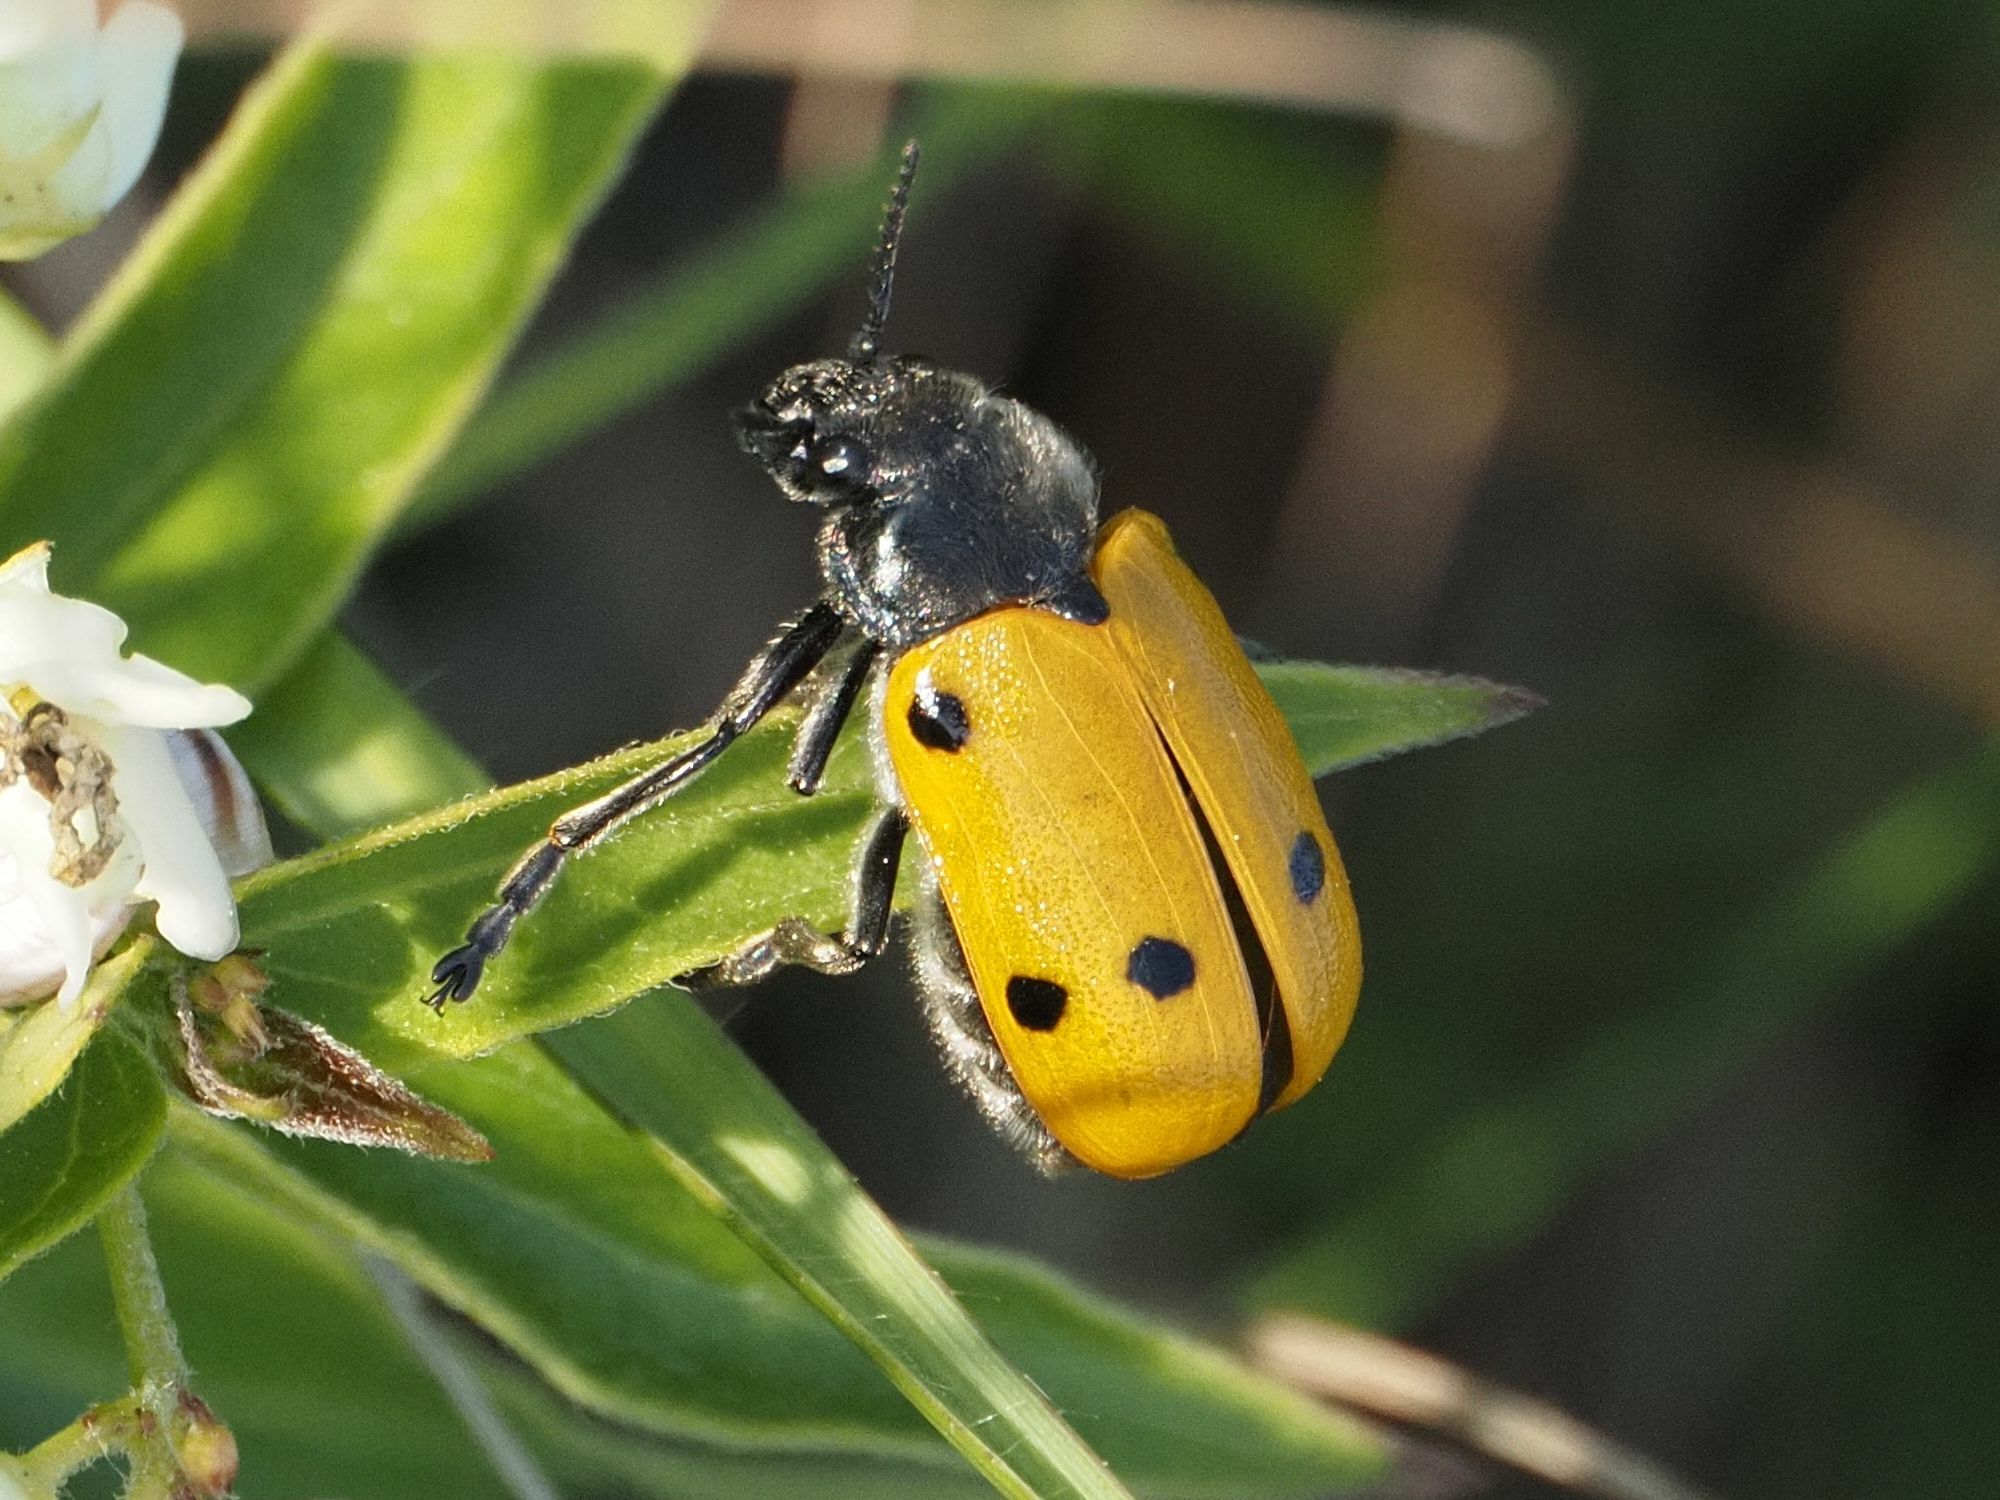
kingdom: Animalia
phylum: Arthropoda
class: Insecta
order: Coleoptera
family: Chrysomelidae
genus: Lachnaia
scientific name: Lachnaia sexpunctata
